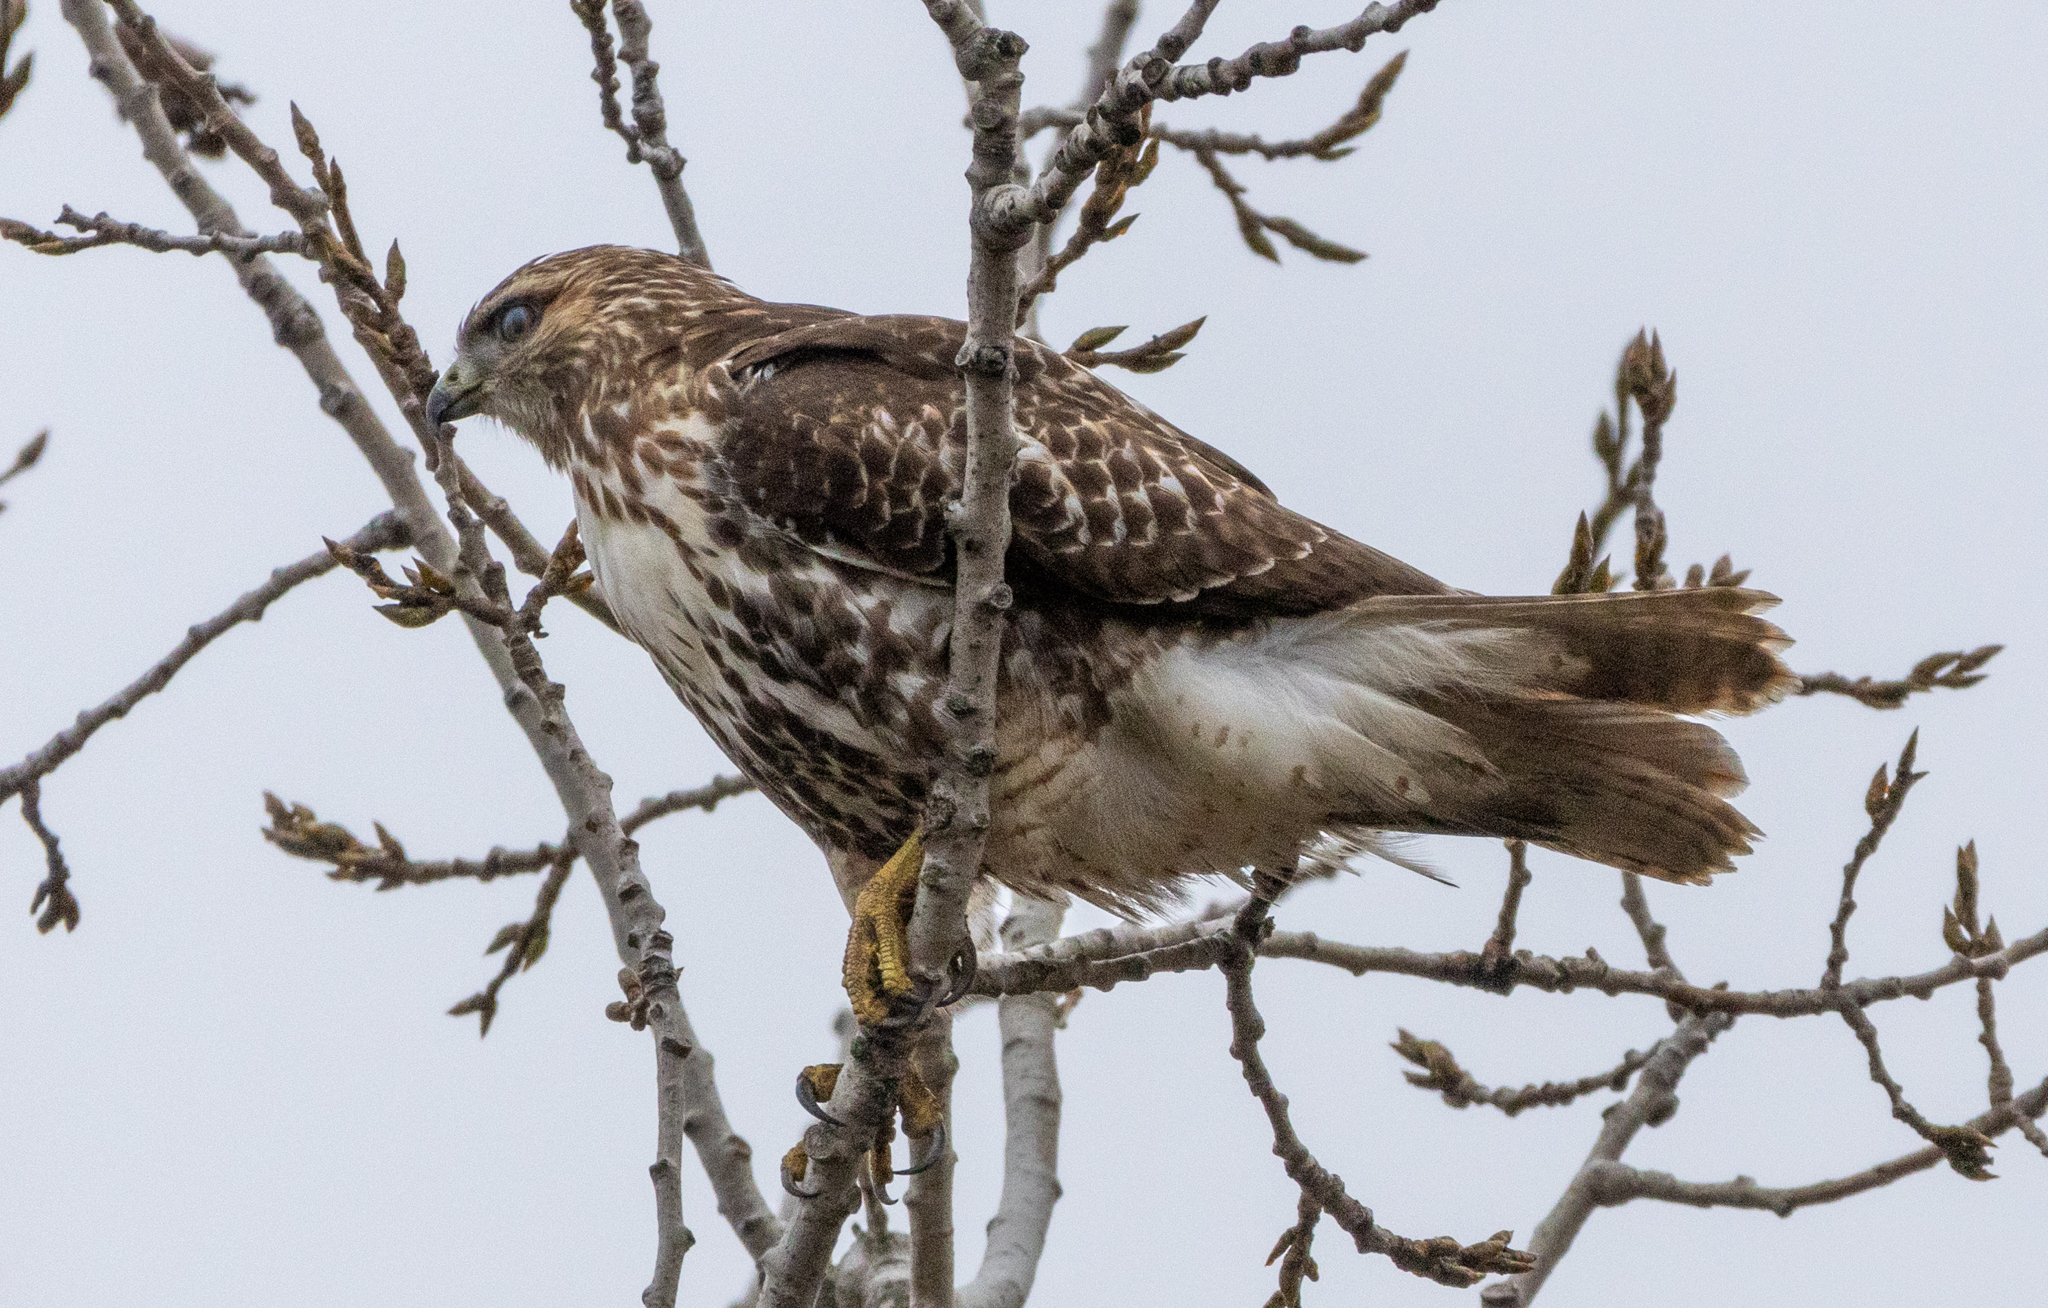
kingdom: Animalia
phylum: Chordata
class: Aves
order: Accipitriformes
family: Accipitridae
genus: Buteo
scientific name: Buteo jamaicensis
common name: Red-tailed hawk
